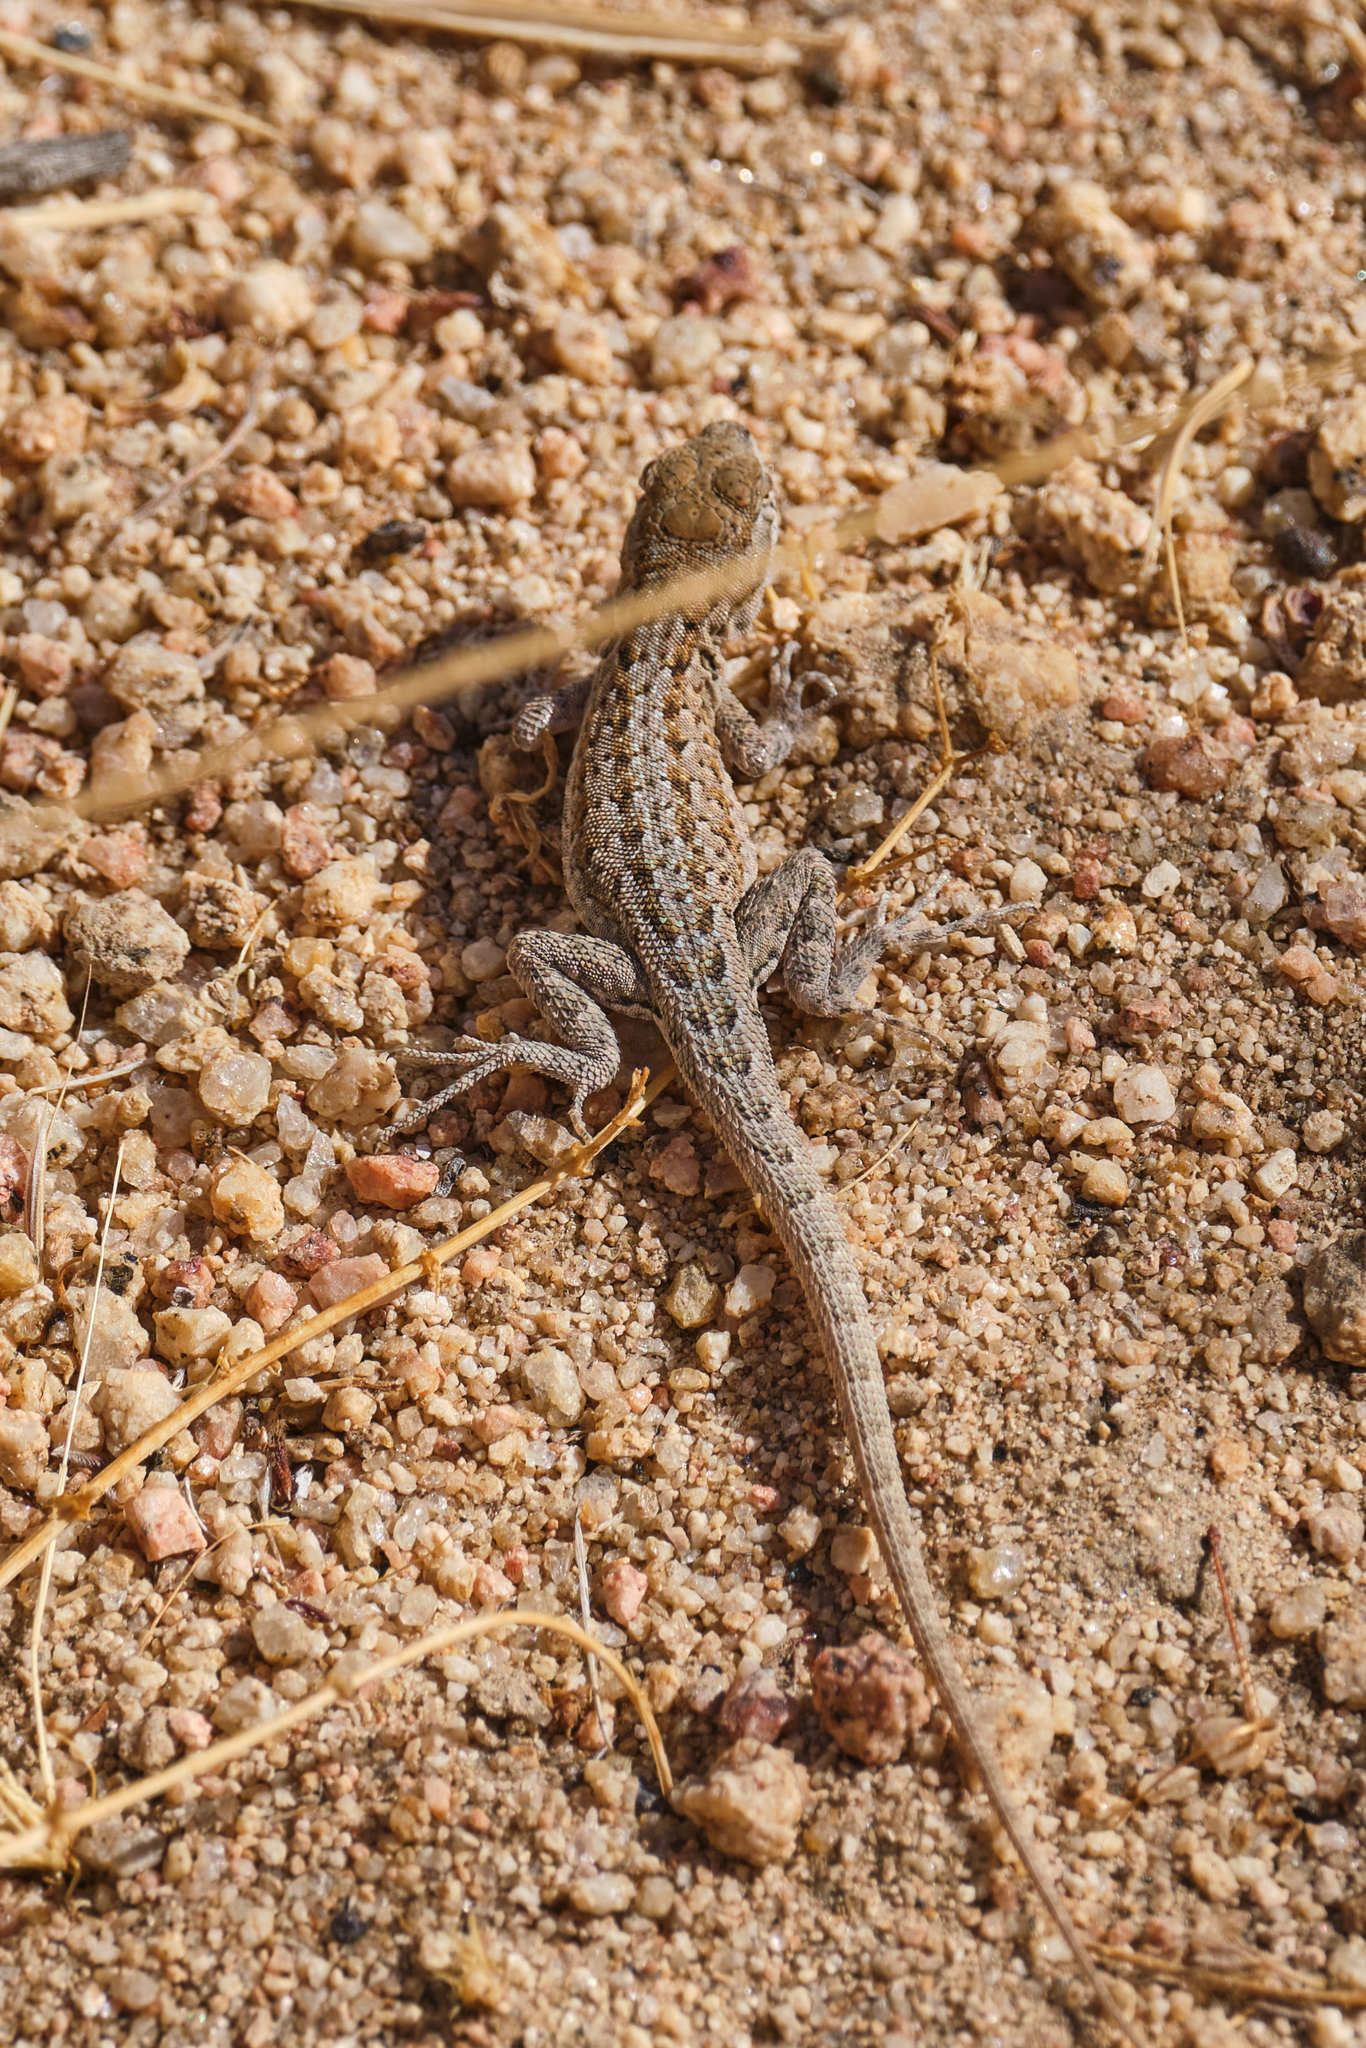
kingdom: Animalia
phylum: Chordata
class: Squamata
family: Phrynosomatidae
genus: Uta
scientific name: Uta stansburiana
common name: Side-blotched lizard
